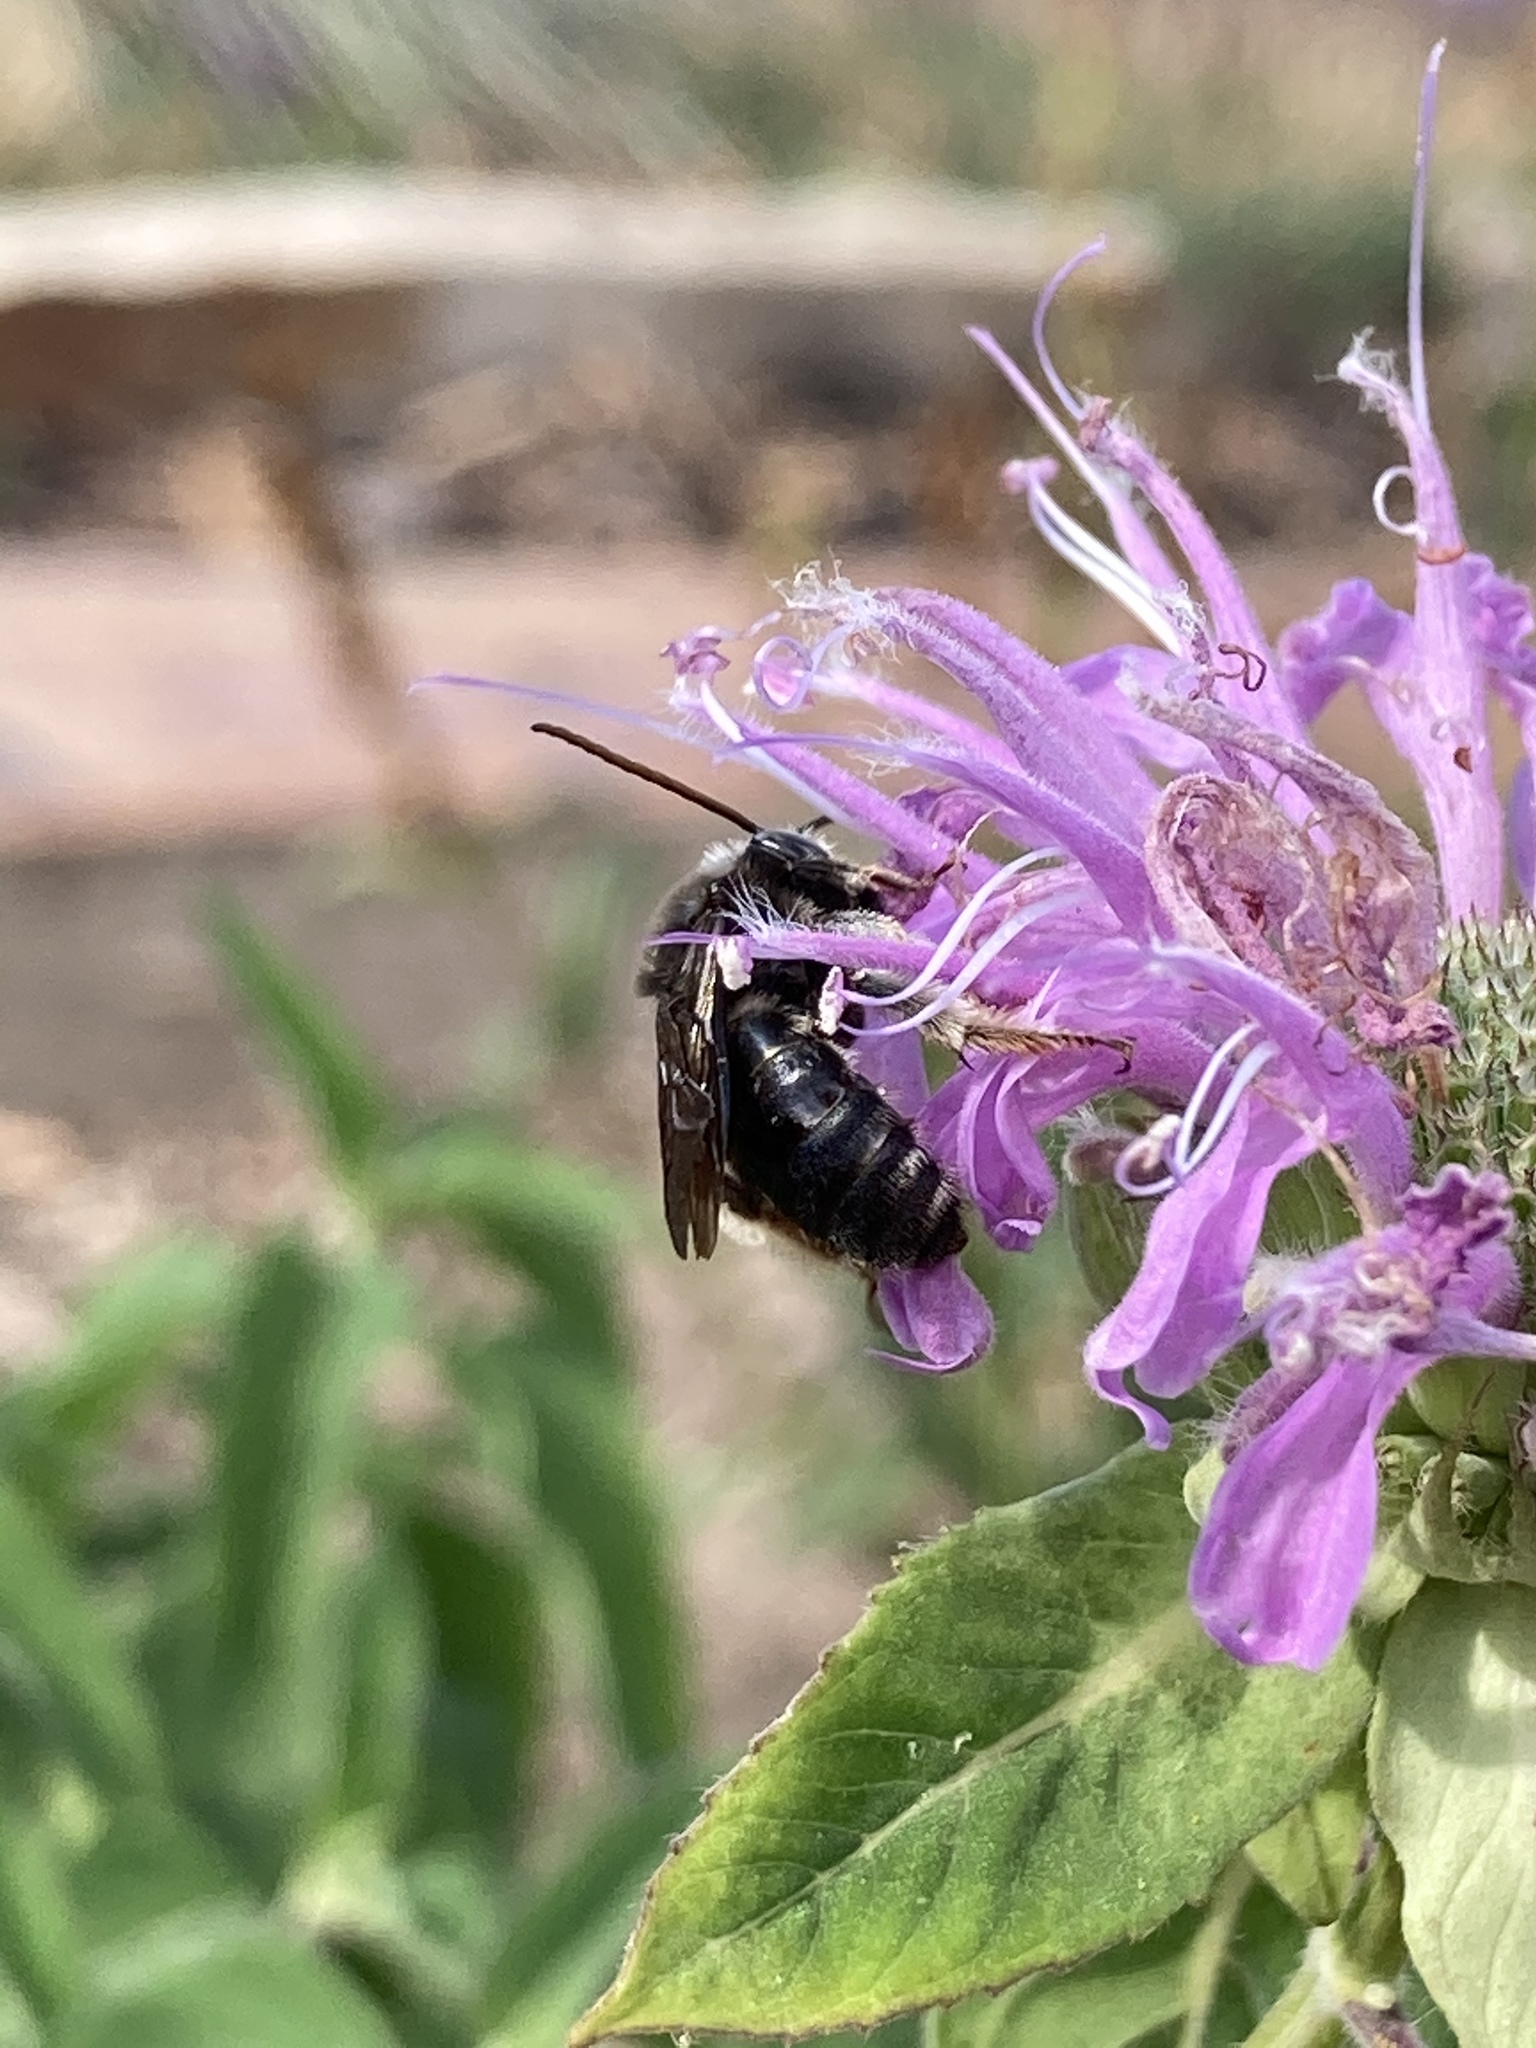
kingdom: Animalia
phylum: Arthropoda
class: Insecta
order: Hymenoptera
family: Apidae
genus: Melissodes
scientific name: Melissodes bimaculatus
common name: Two-spotted long-horned bee
